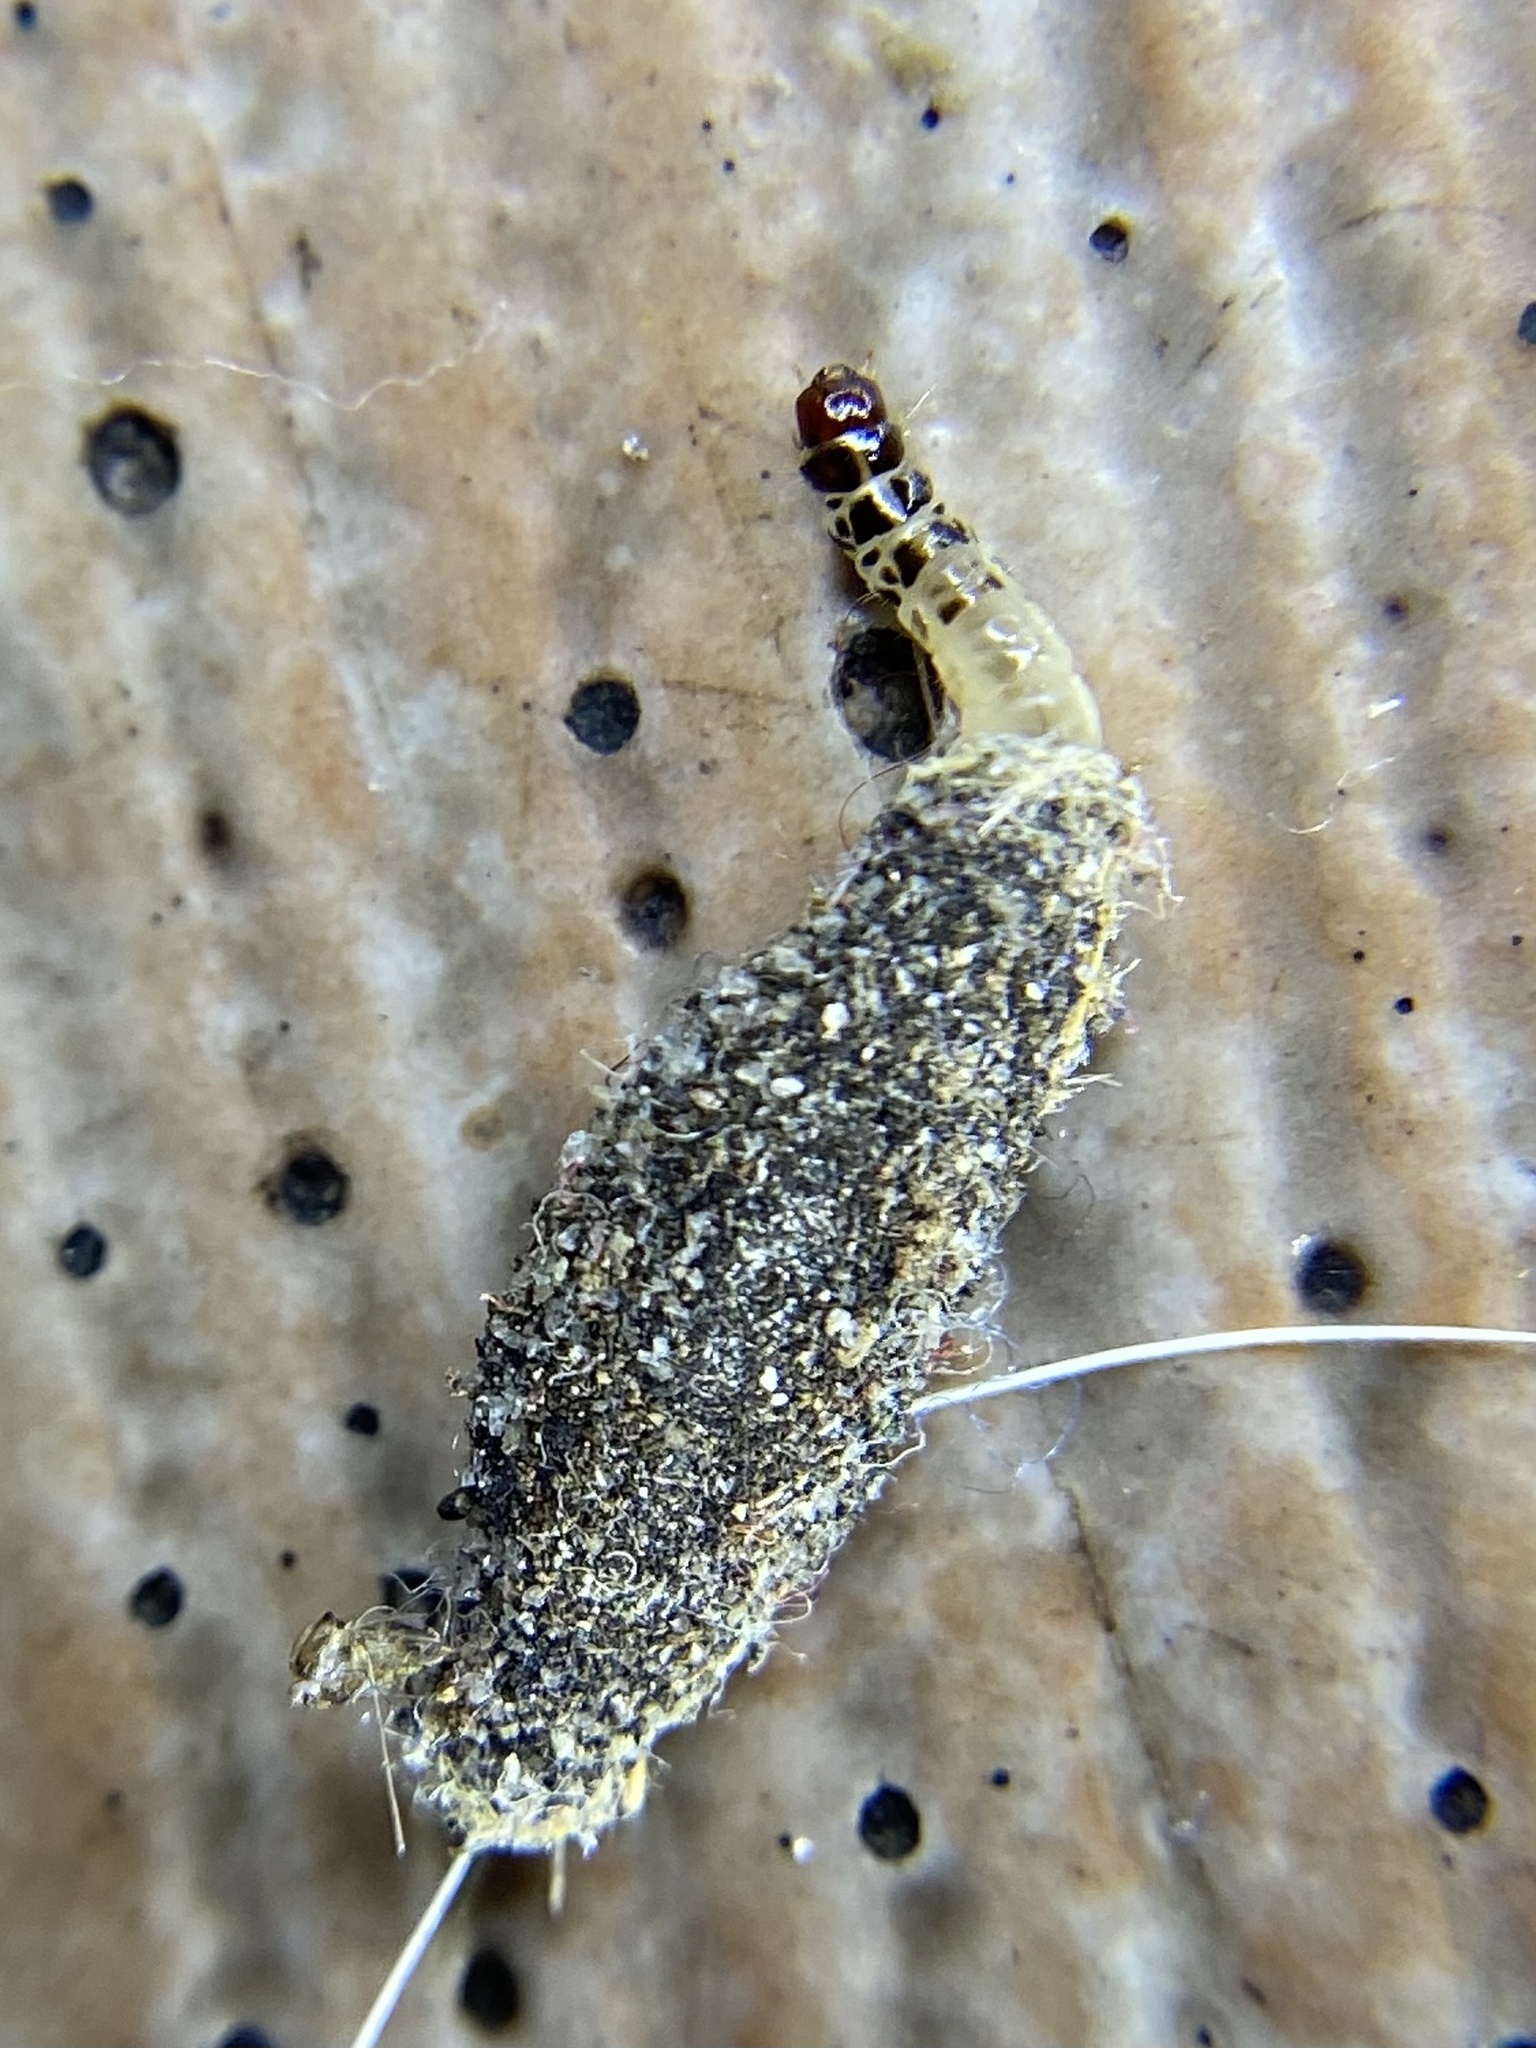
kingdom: Animalia
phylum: Arthropoda
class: Insecta
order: Lepidoptera
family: Tineidae
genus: Phereoeca
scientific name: Phereoeca uterella
